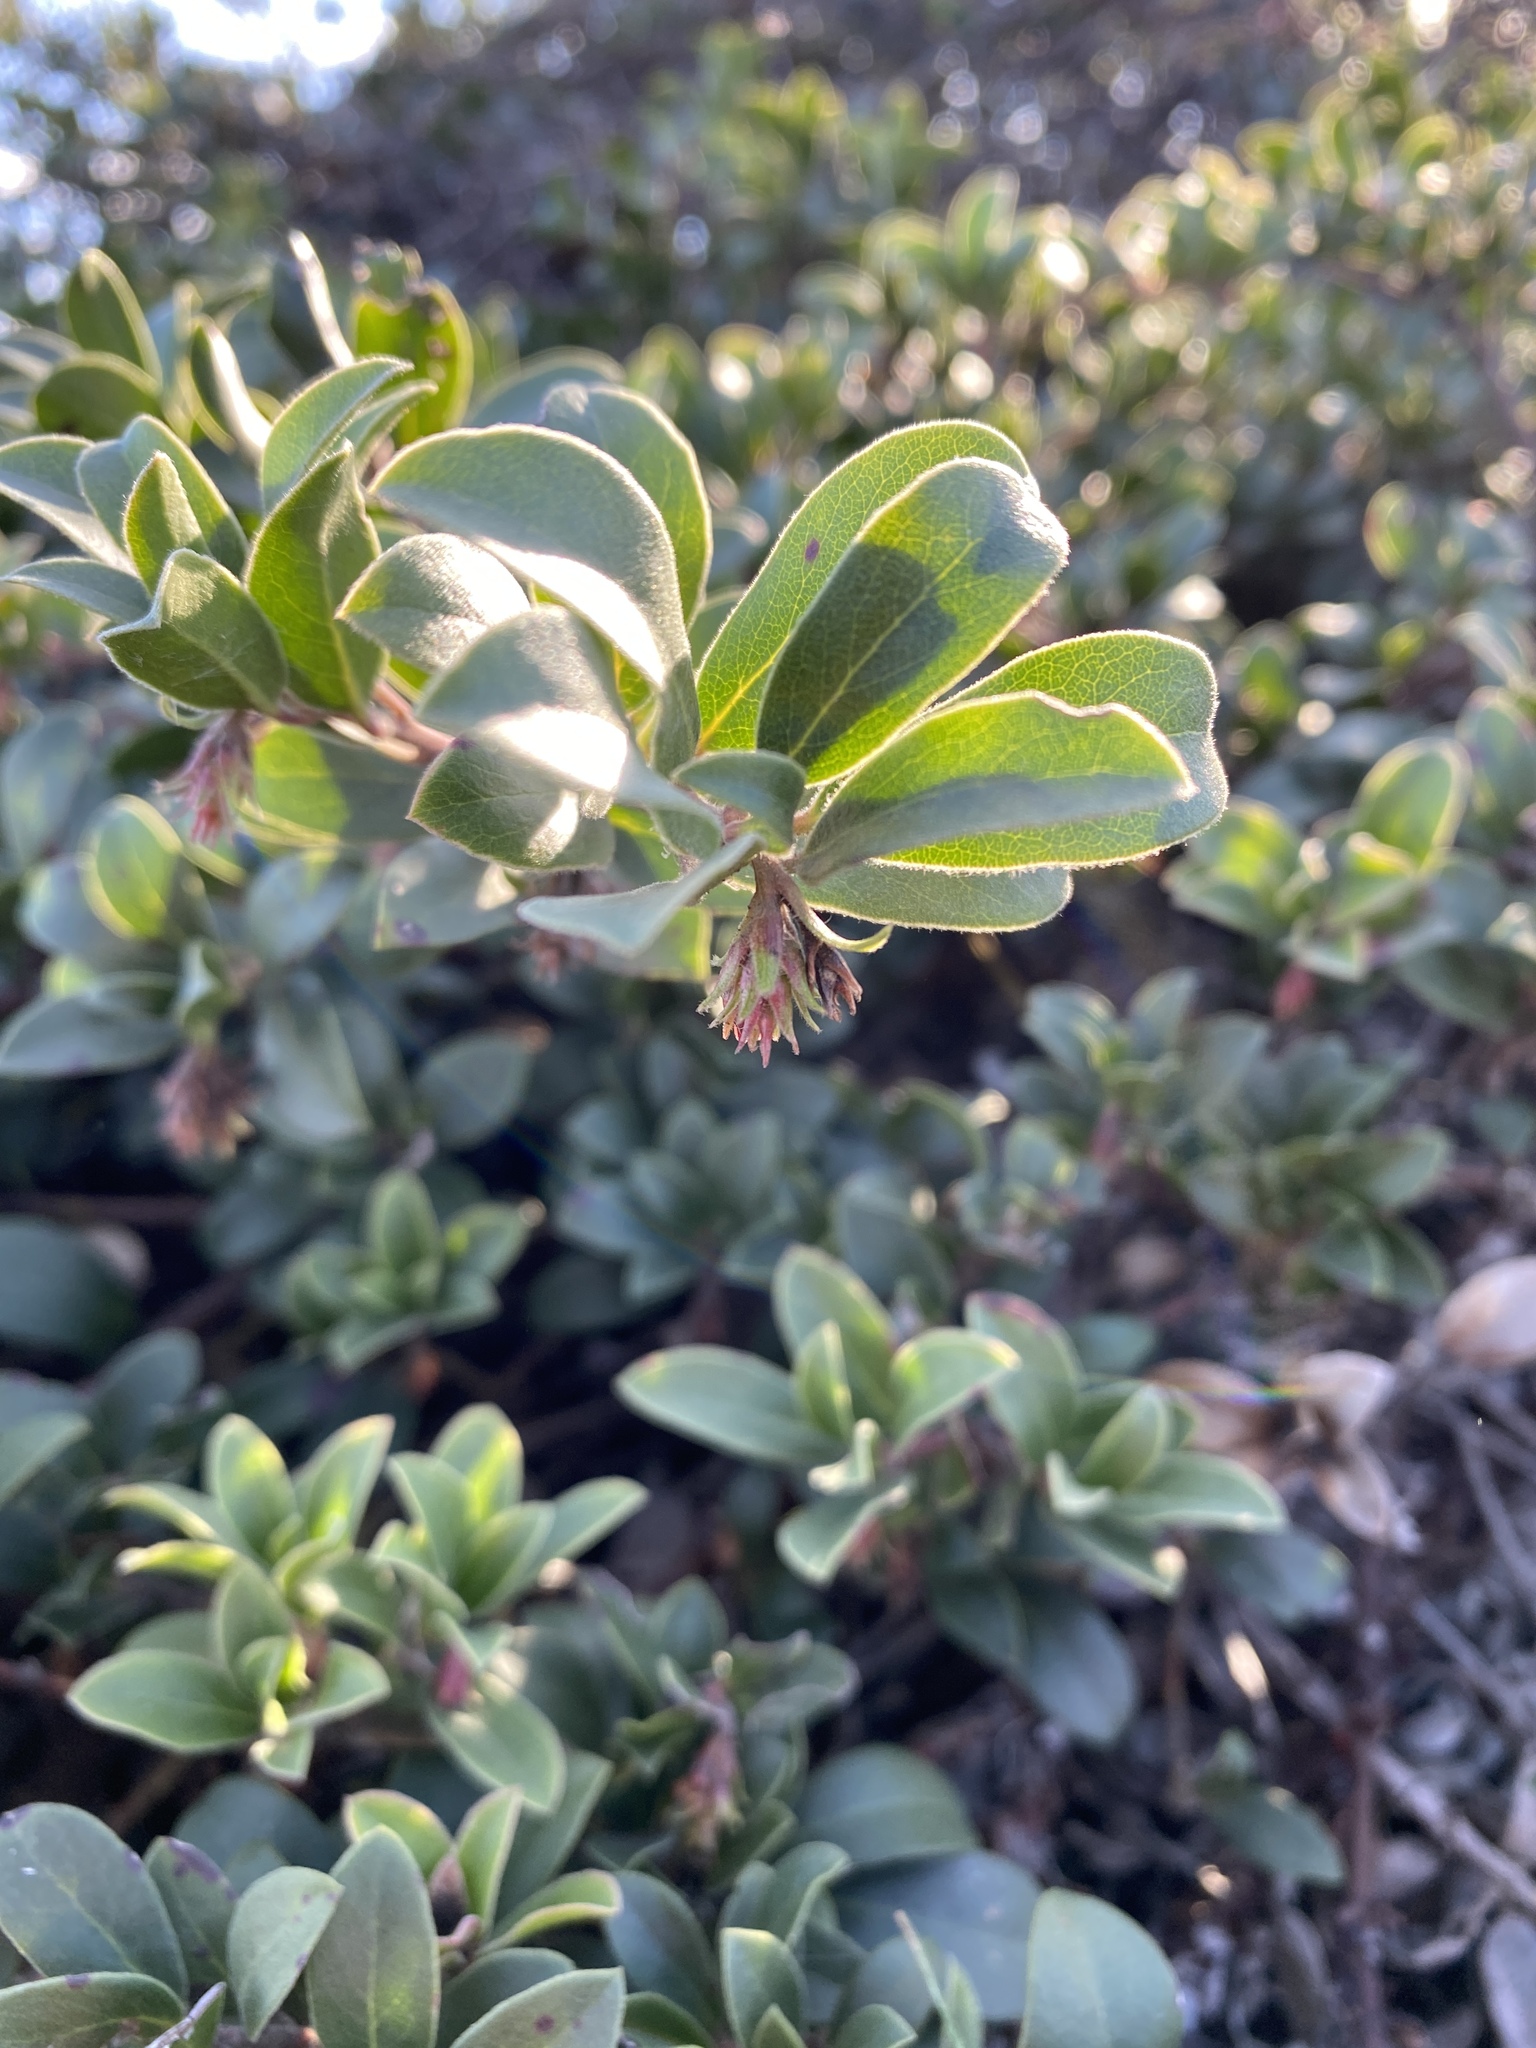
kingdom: Plantae
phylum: Tracheophyta
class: Magnoliopsida
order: Ericales
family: Ericaceae
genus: Arctostaphylos
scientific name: Arctostaphylos uva-ursi
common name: Bearberry
